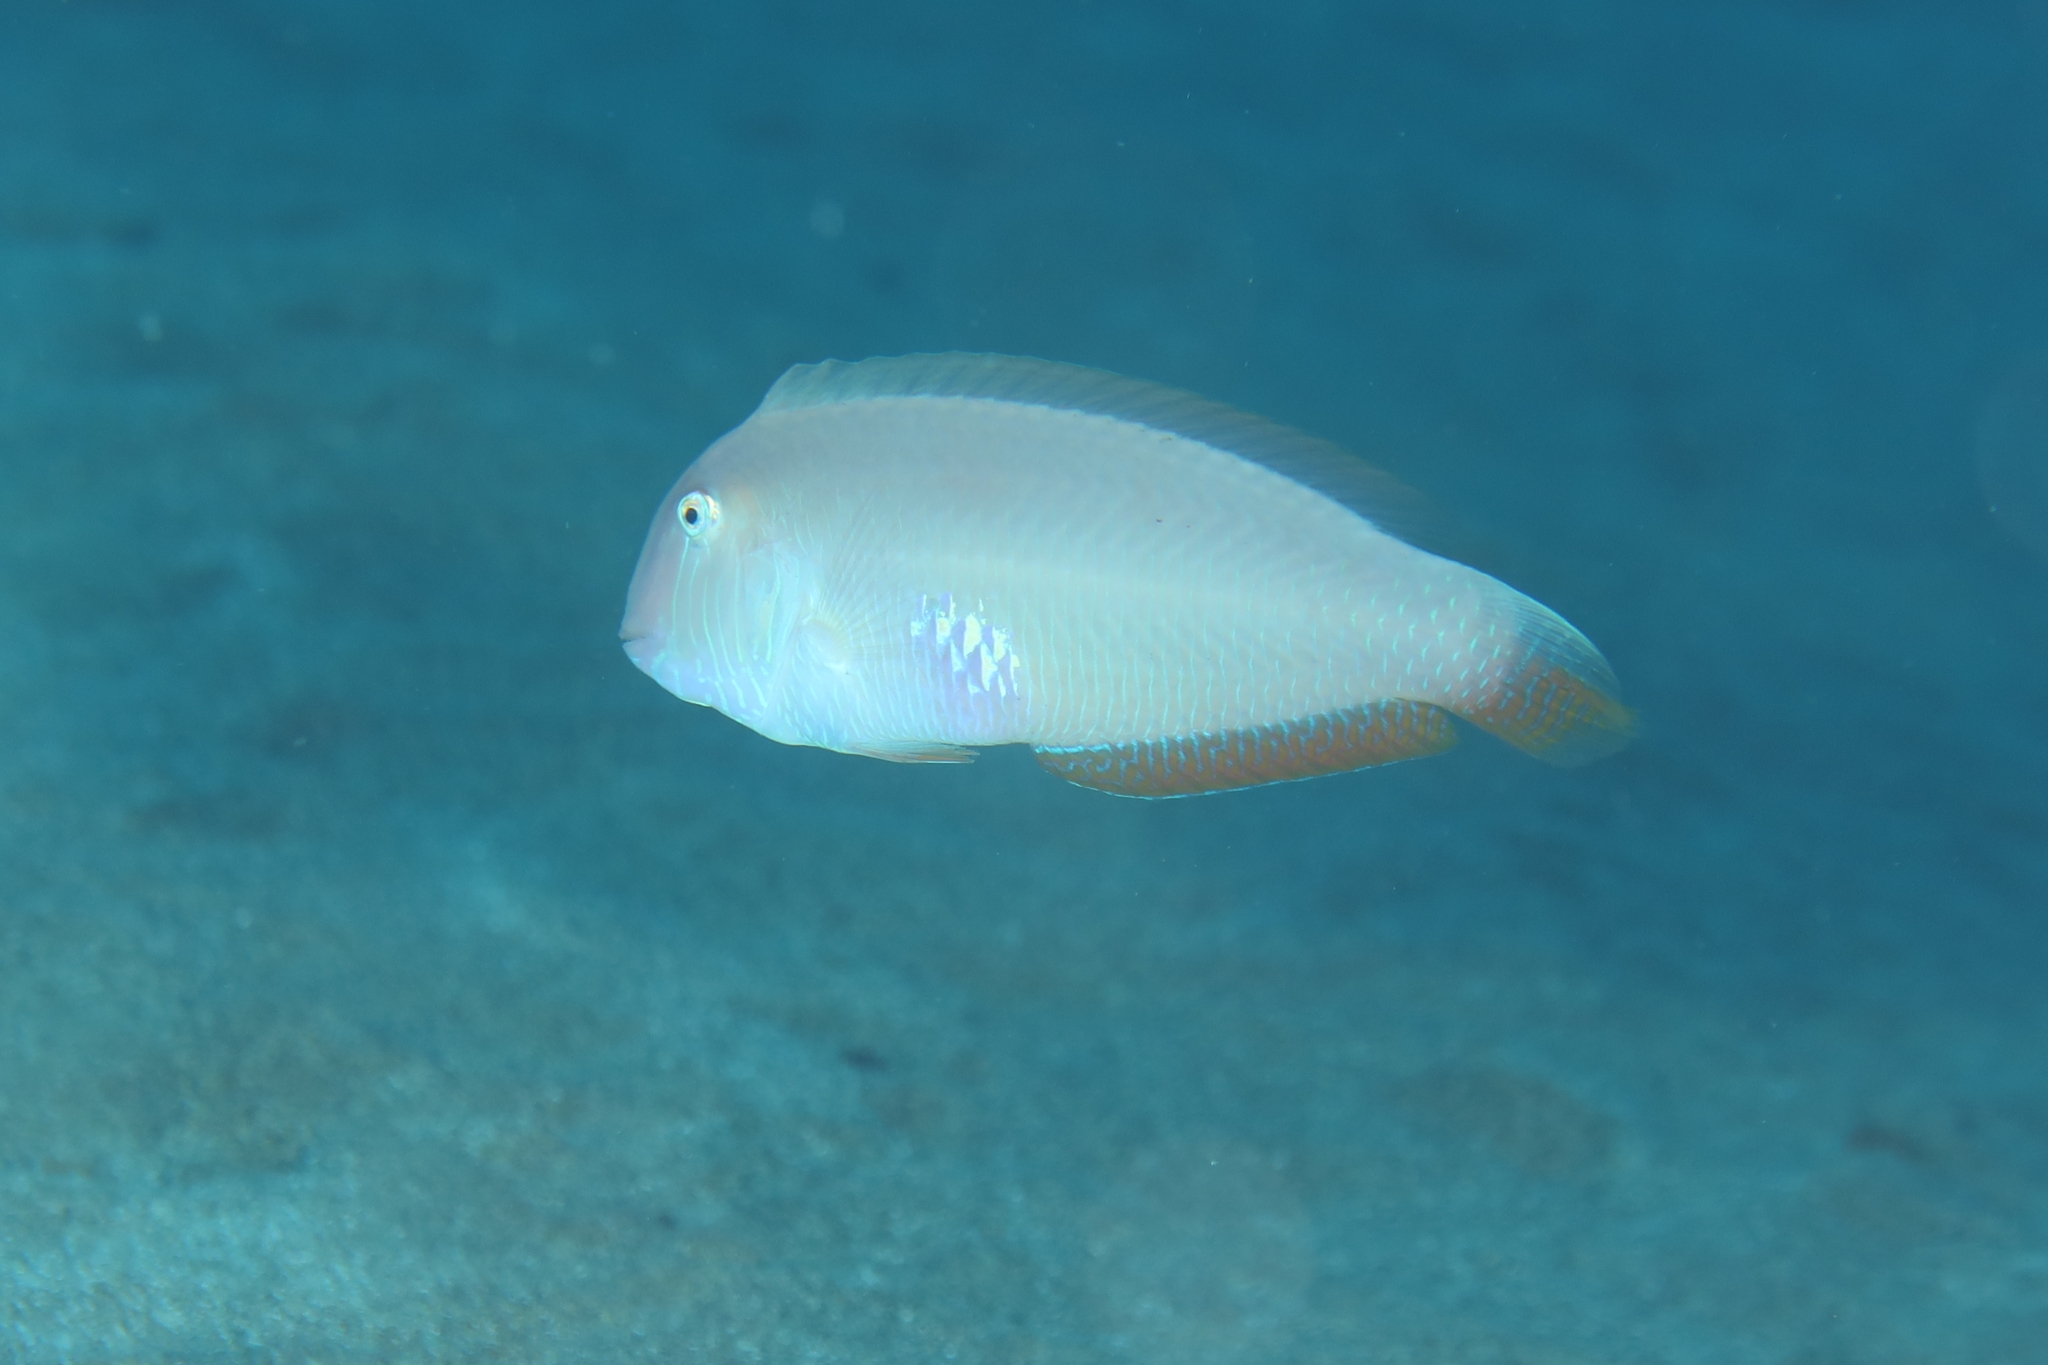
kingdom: Animalia
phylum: Chordata
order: Perciformes
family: Labridae
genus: Xyrichtys
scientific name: Xyrichtys novacula
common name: Pearly razorfish
